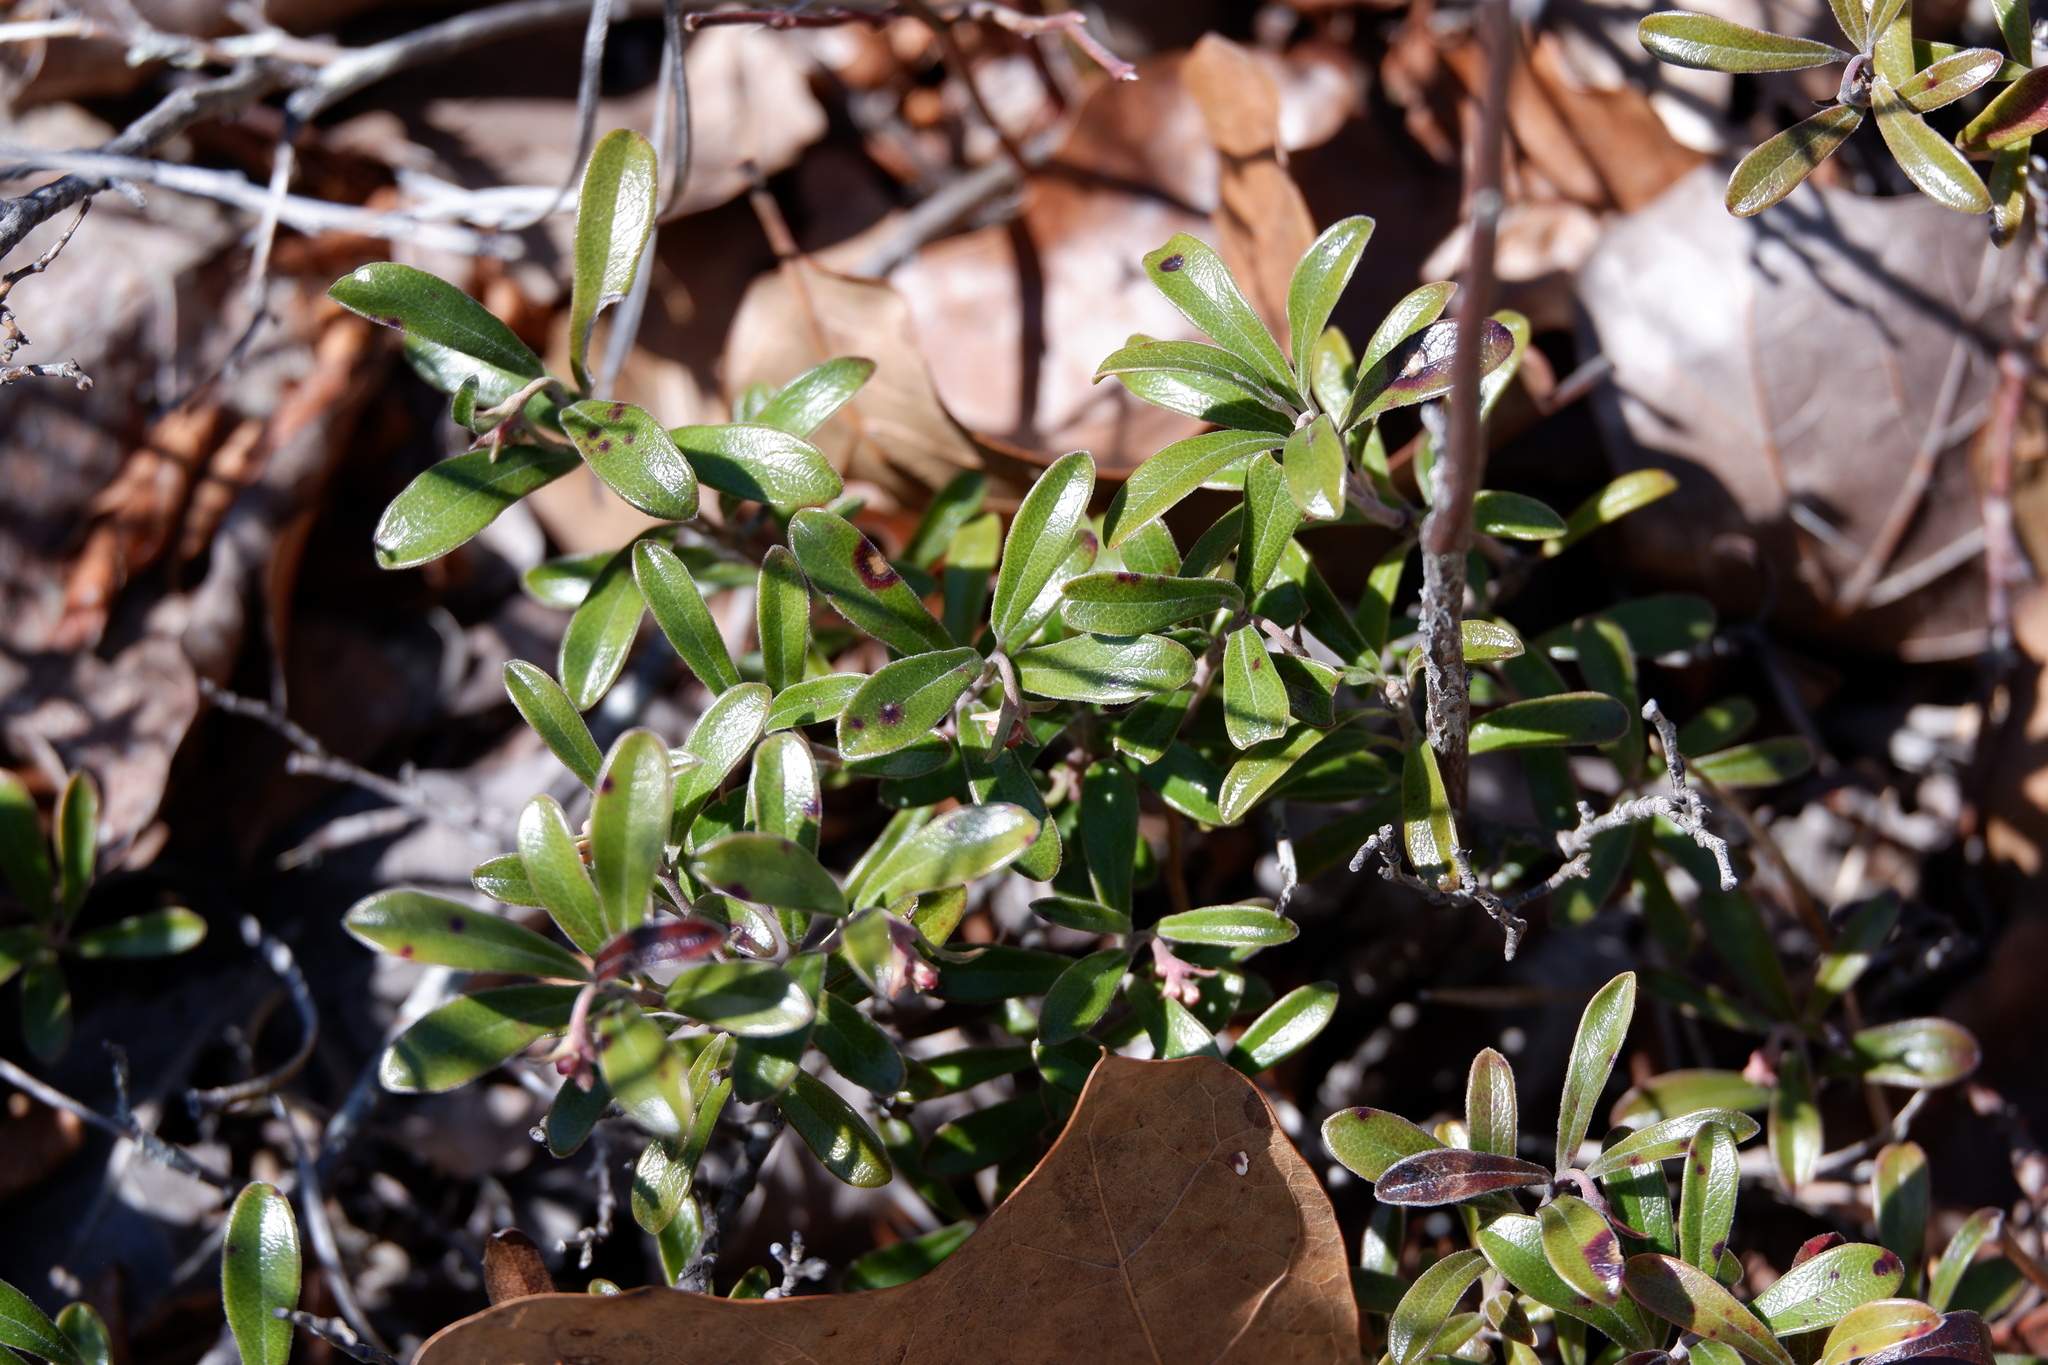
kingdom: Plantae
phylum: Tracheophyta
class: Magnoliopsida
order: Ericales
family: Ericaceae
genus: Arctostaphylos
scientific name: Arctostaphylos uva-ursi
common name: Bearberry
